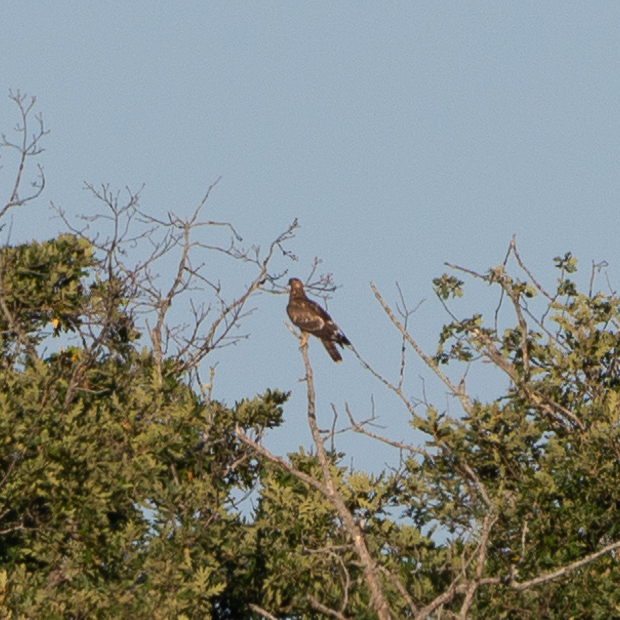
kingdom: Animalia
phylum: Chordata
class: Aves
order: Accipitriformes
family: Accipitridae
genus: Pernis
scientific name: Pernis apivorus
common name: European honey buzzard
